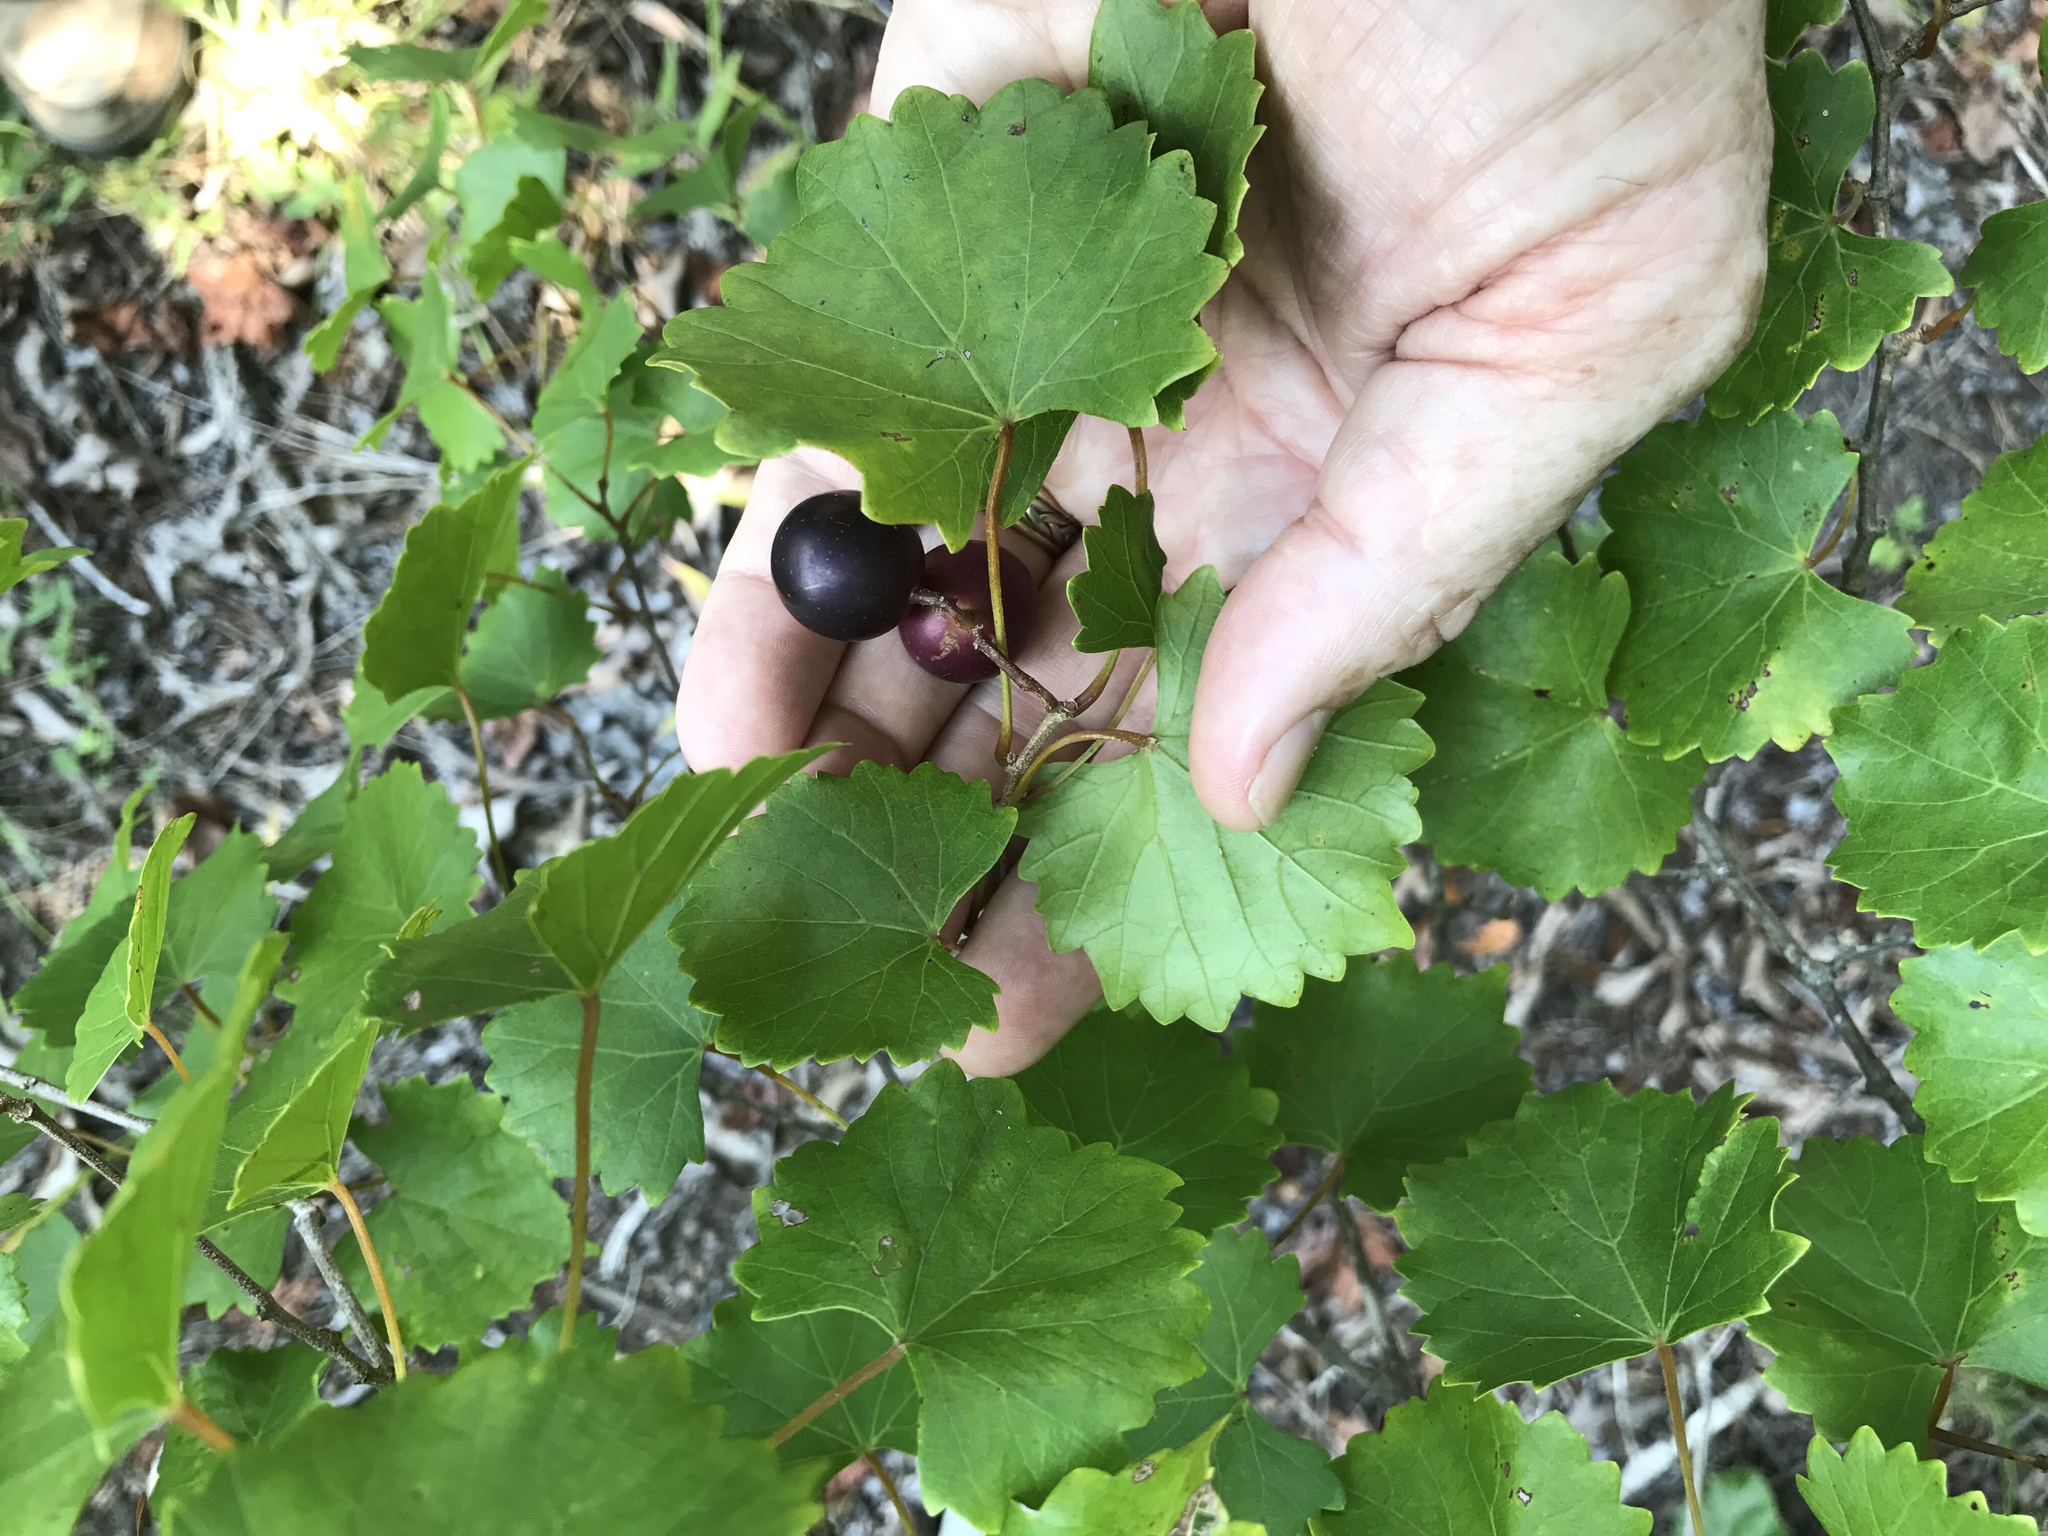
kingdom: Plantae
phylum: Tracheophyta
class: Magnoliopsida
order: Vitales
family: Vitaceae
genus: Vitis
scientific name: Vitis rotundifolia
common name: Muscadine grape
